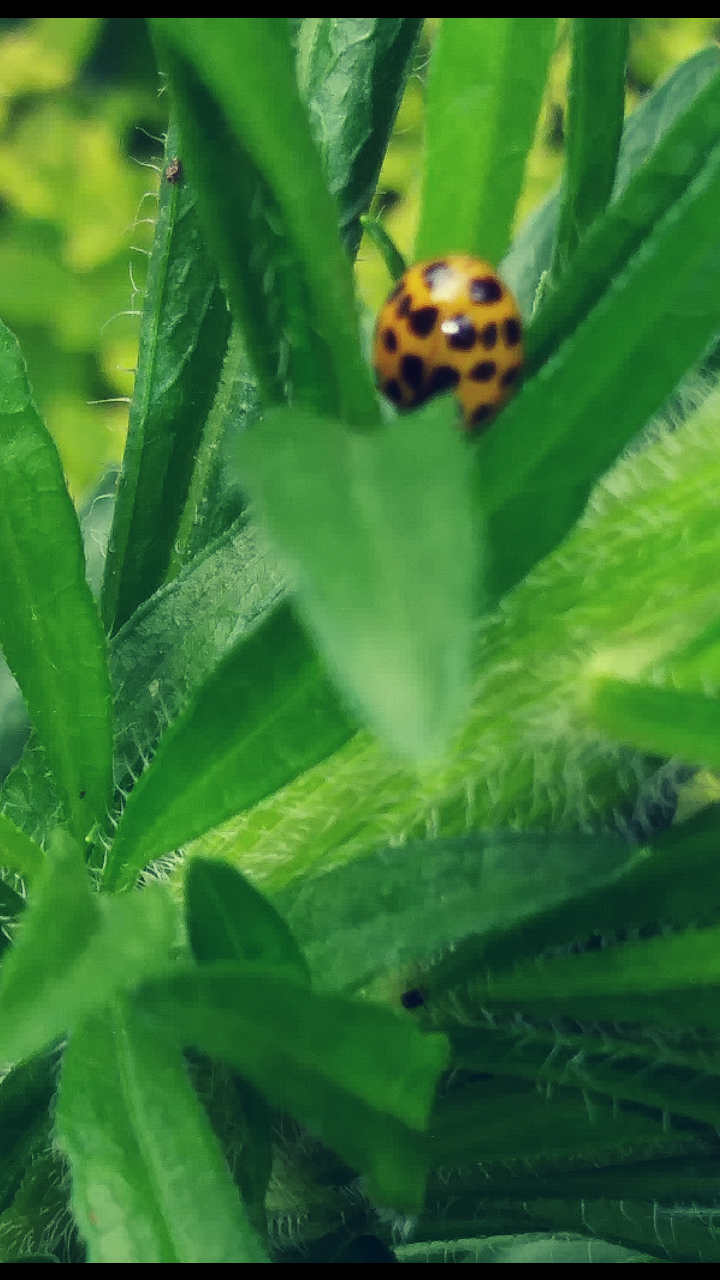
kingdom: Animalia
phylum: Arthropoda
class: Insecta
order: Coleoptera
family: Coccinellidae
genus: Harmonia
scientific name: Harmonia axyridis
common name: Harlequin ladybird
